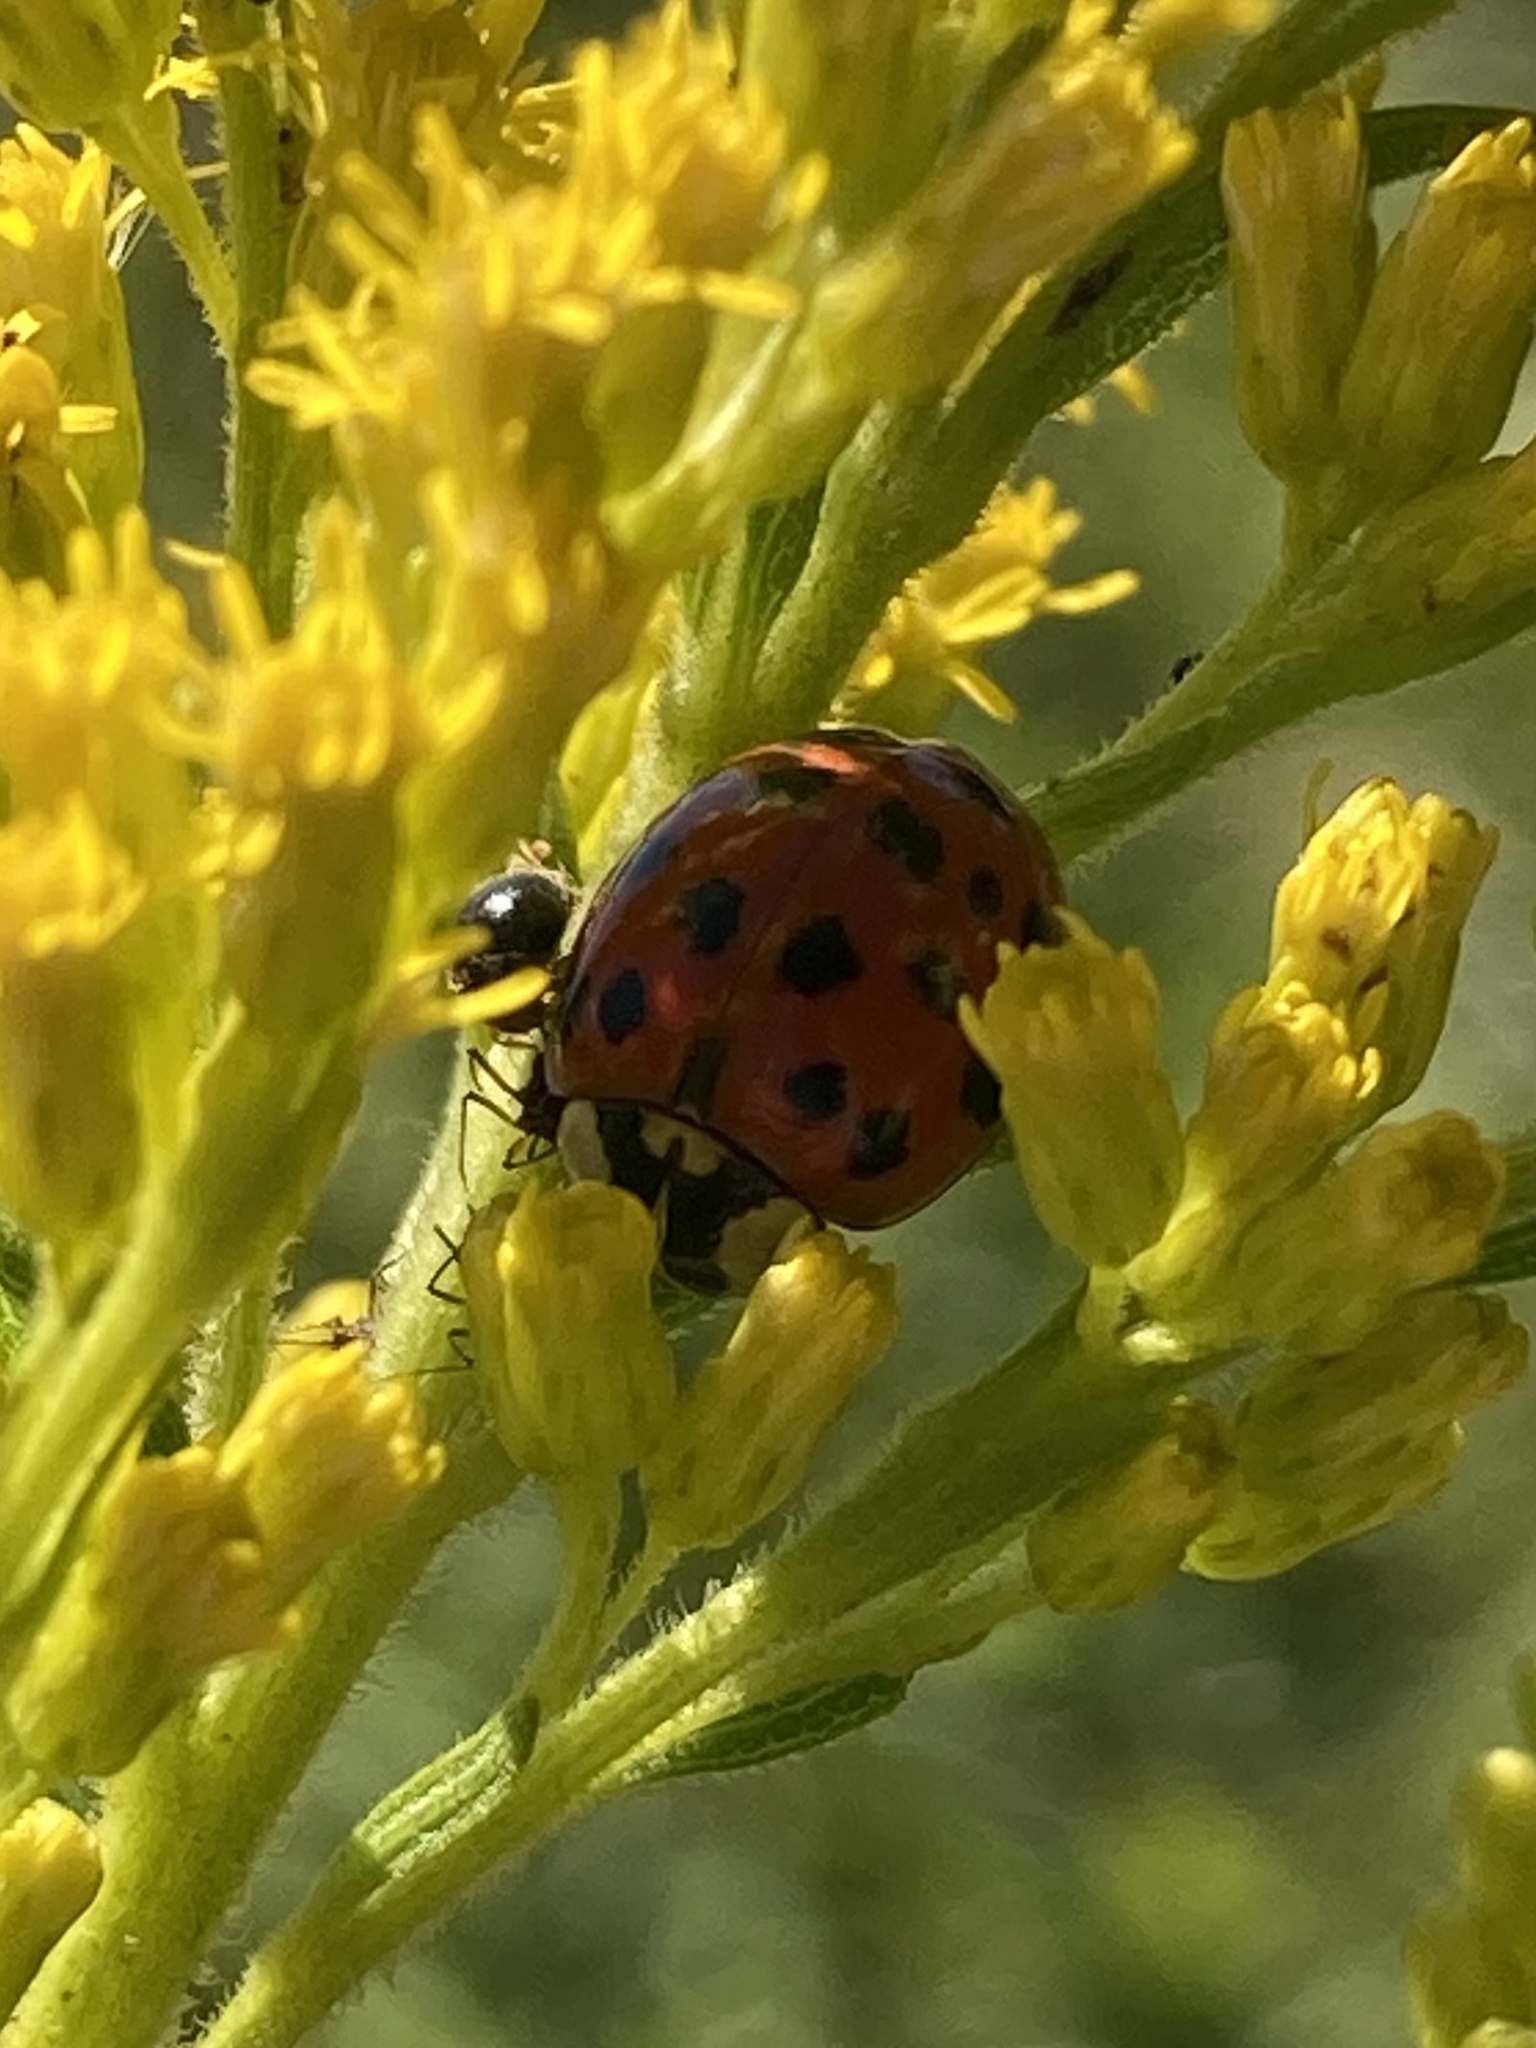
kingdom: Animalia
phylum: Arthropoda
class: Insecta
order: Coleoptera
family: Coccinellidae
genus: Harmonia
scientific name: Harmonia axyridis
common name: Harlequin ladybird
